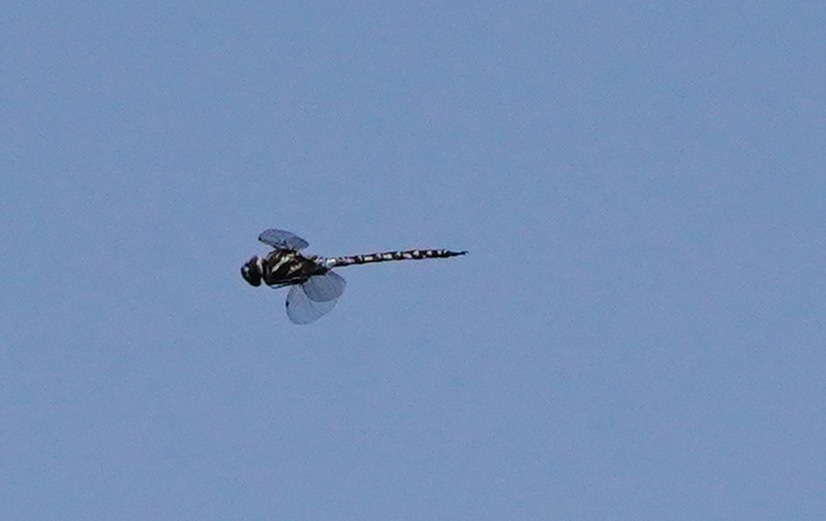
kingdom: Animalia
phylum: Arthropoda
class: Insecta
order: Odonata
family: Aeshnidae
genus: Rhionaeschna
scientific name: Rhionaeschna multicolor
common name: Blue-eyed darner
